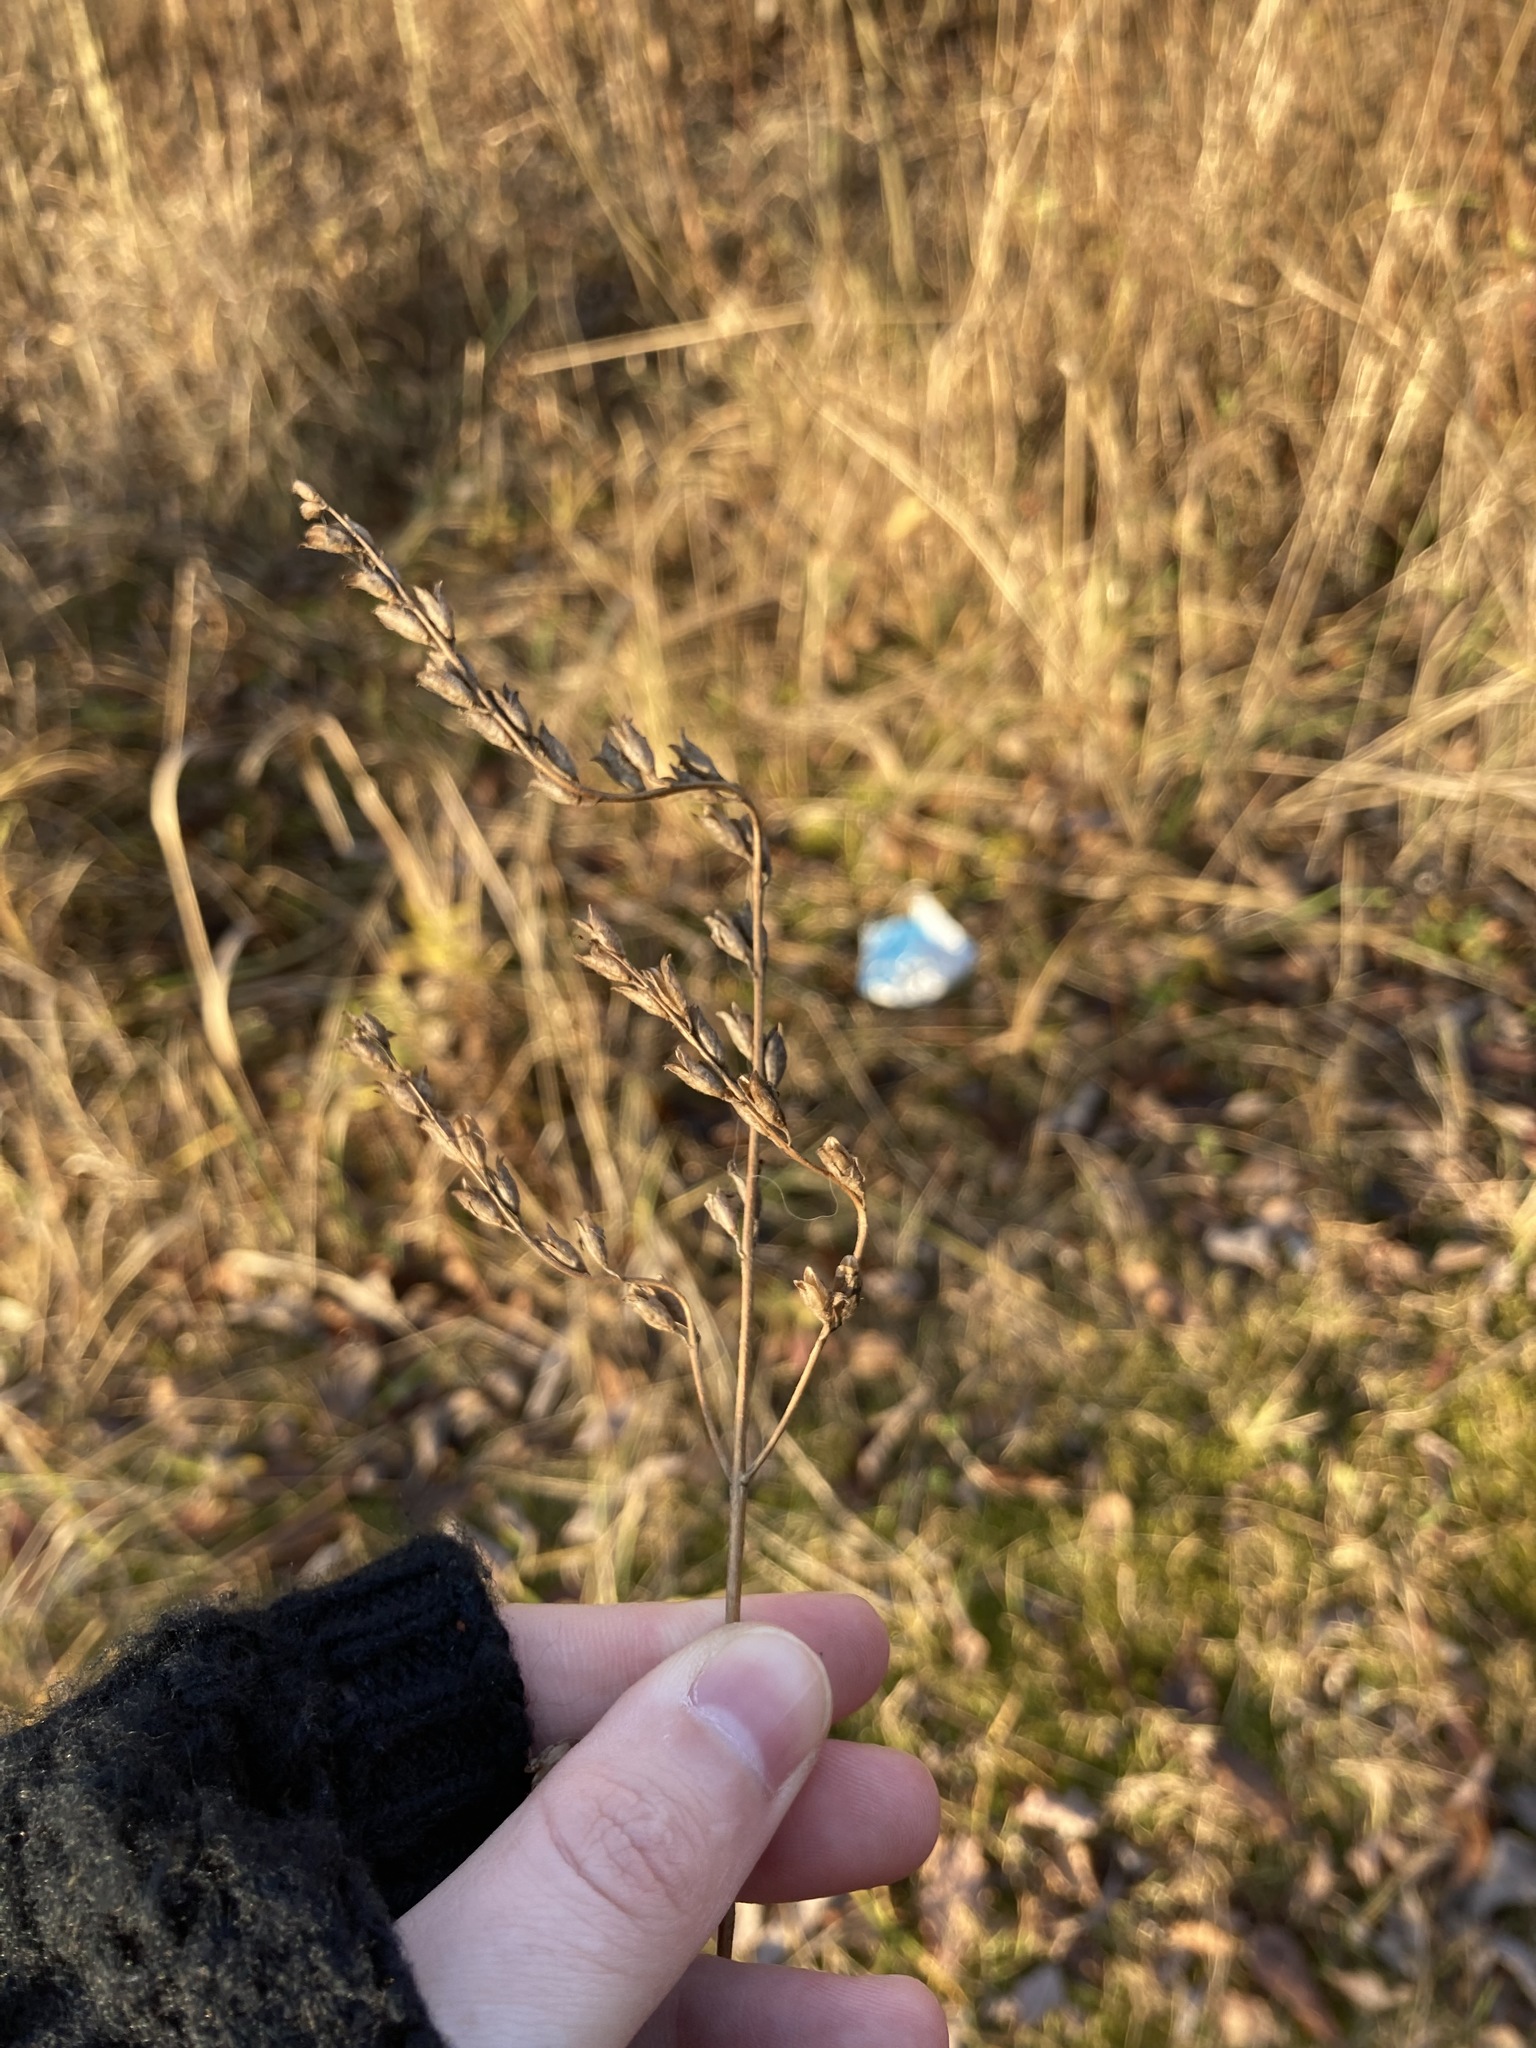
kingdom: Plantae
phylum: Tracheophyta
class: Magnoliopsida
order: Lamiales
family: Orobanchaceae
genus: Odontites
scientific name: Odontites vulgaris
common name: Broomrape
